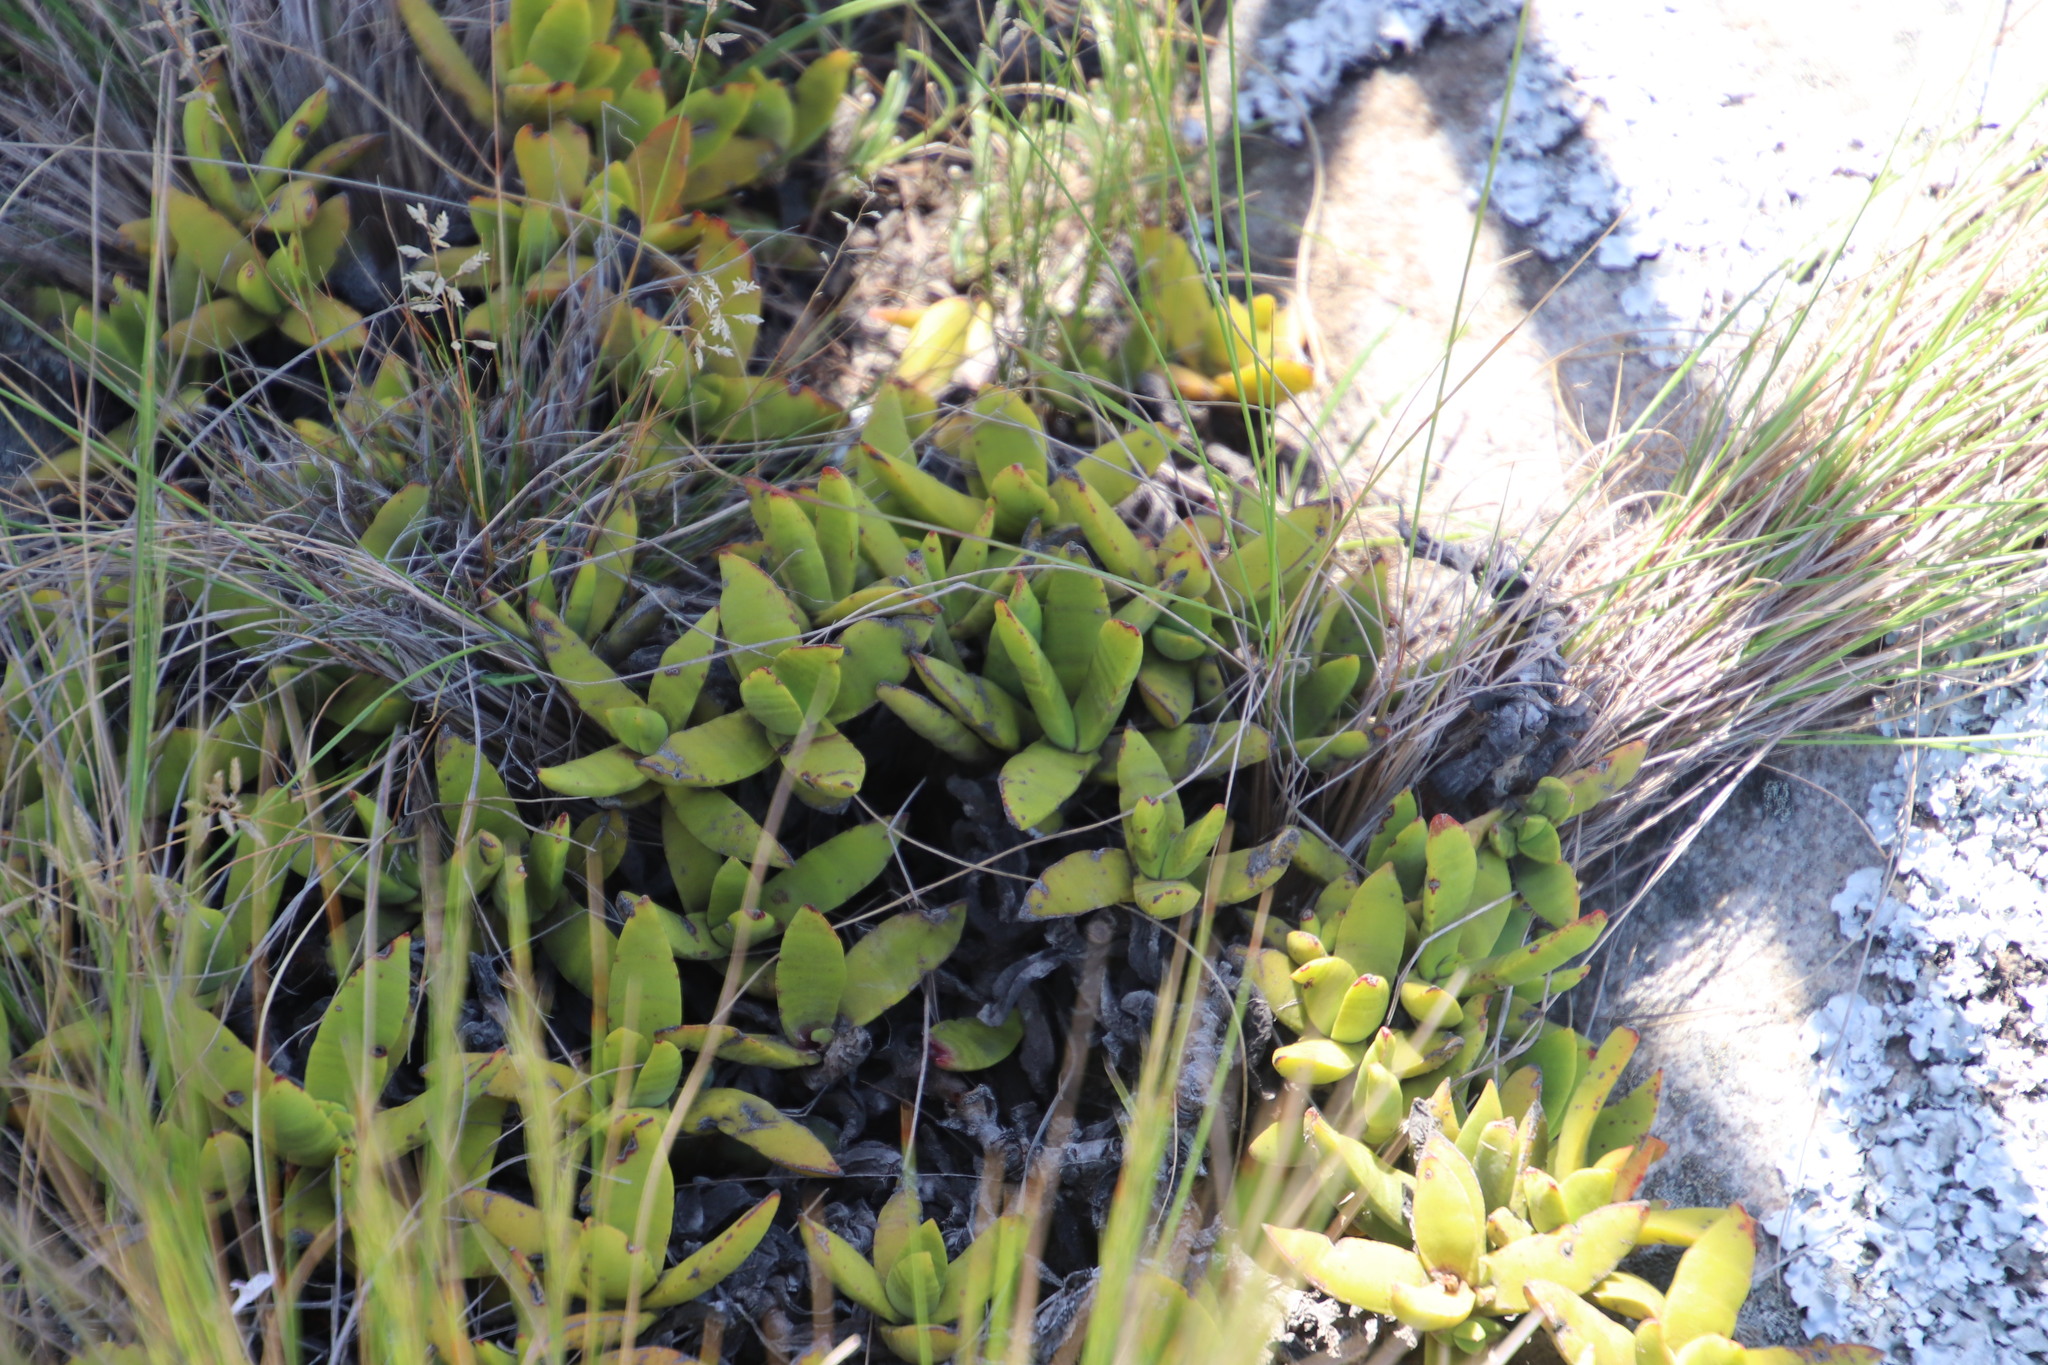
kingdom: Plantae
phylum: Tracheophyta
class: Magnoliopsida
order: Saxifragales
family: Crassulaceae
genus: Crassula
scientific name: Crassula perfoliata
